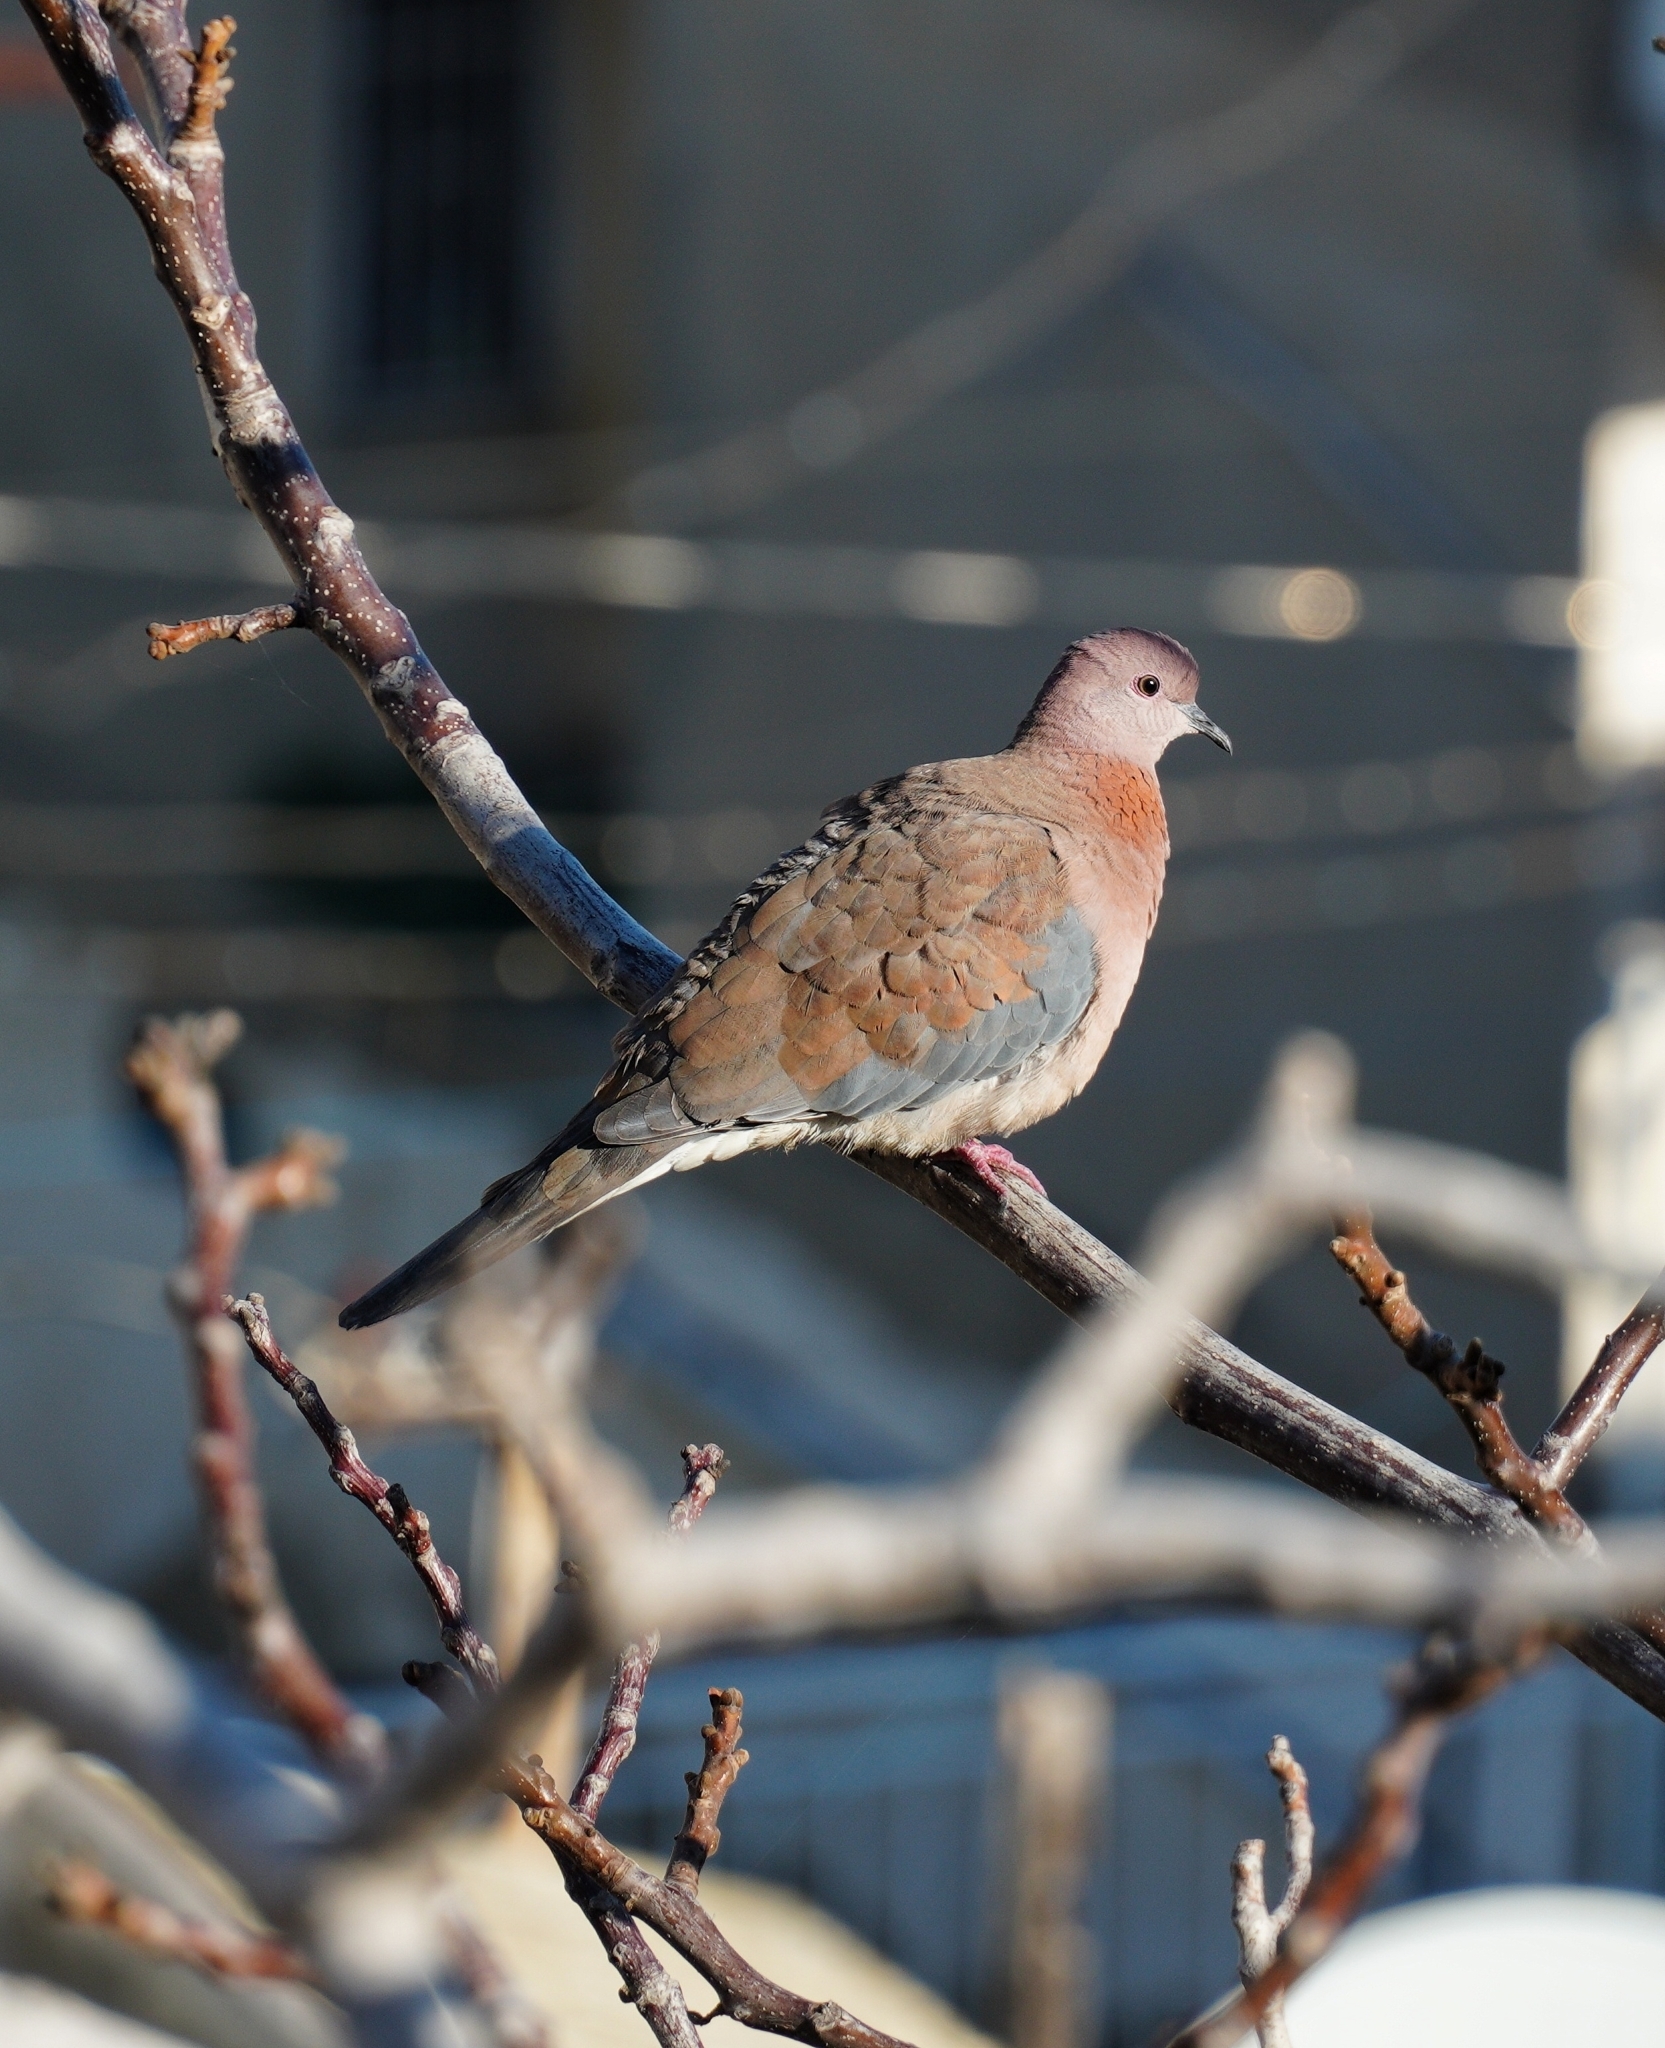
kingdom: Animalia
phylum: Chordata
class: Aves
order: Columbiformes
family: Columbidae
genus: Spilopelia
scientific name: Spilopelia senegalensis
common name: Laughing dove
